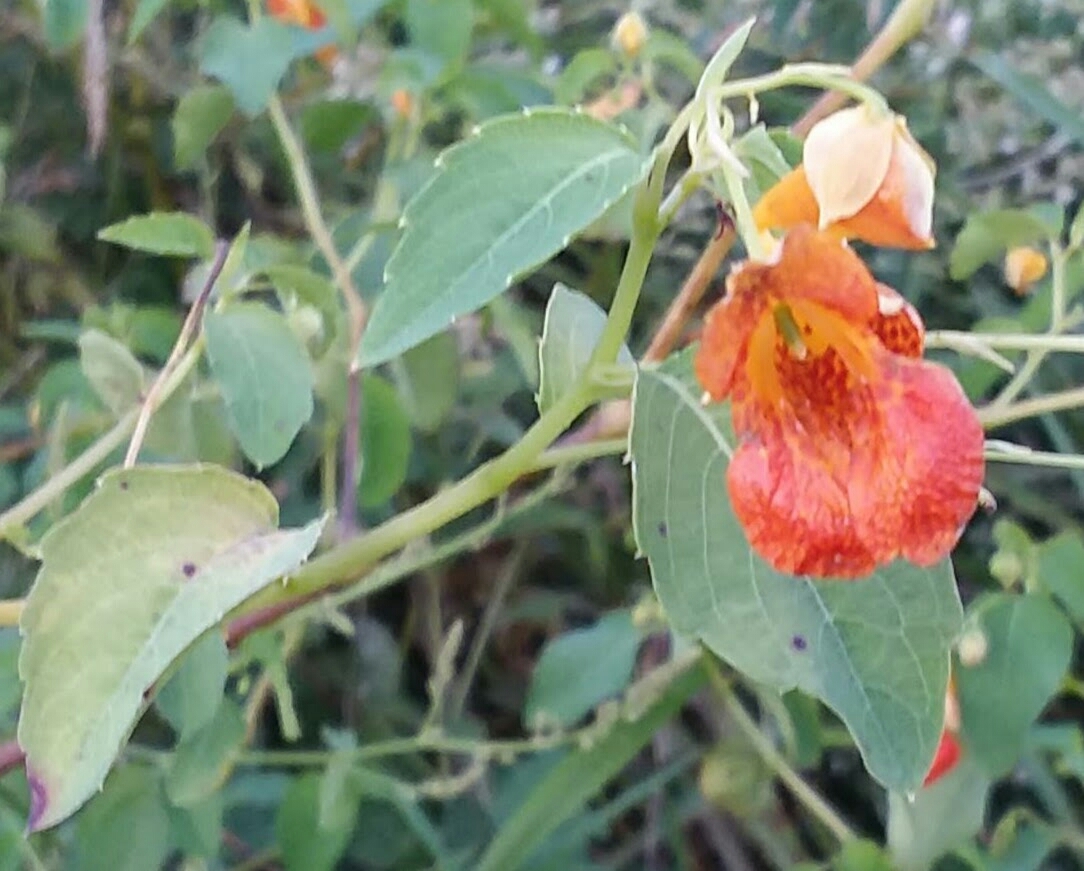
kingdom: Plantae
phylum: Tracheophyta
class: Magnoliopsida
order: Ericales
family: Balsaminaceae
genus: Impatiens
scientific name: Impatiens capensis
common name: Orange balsam
